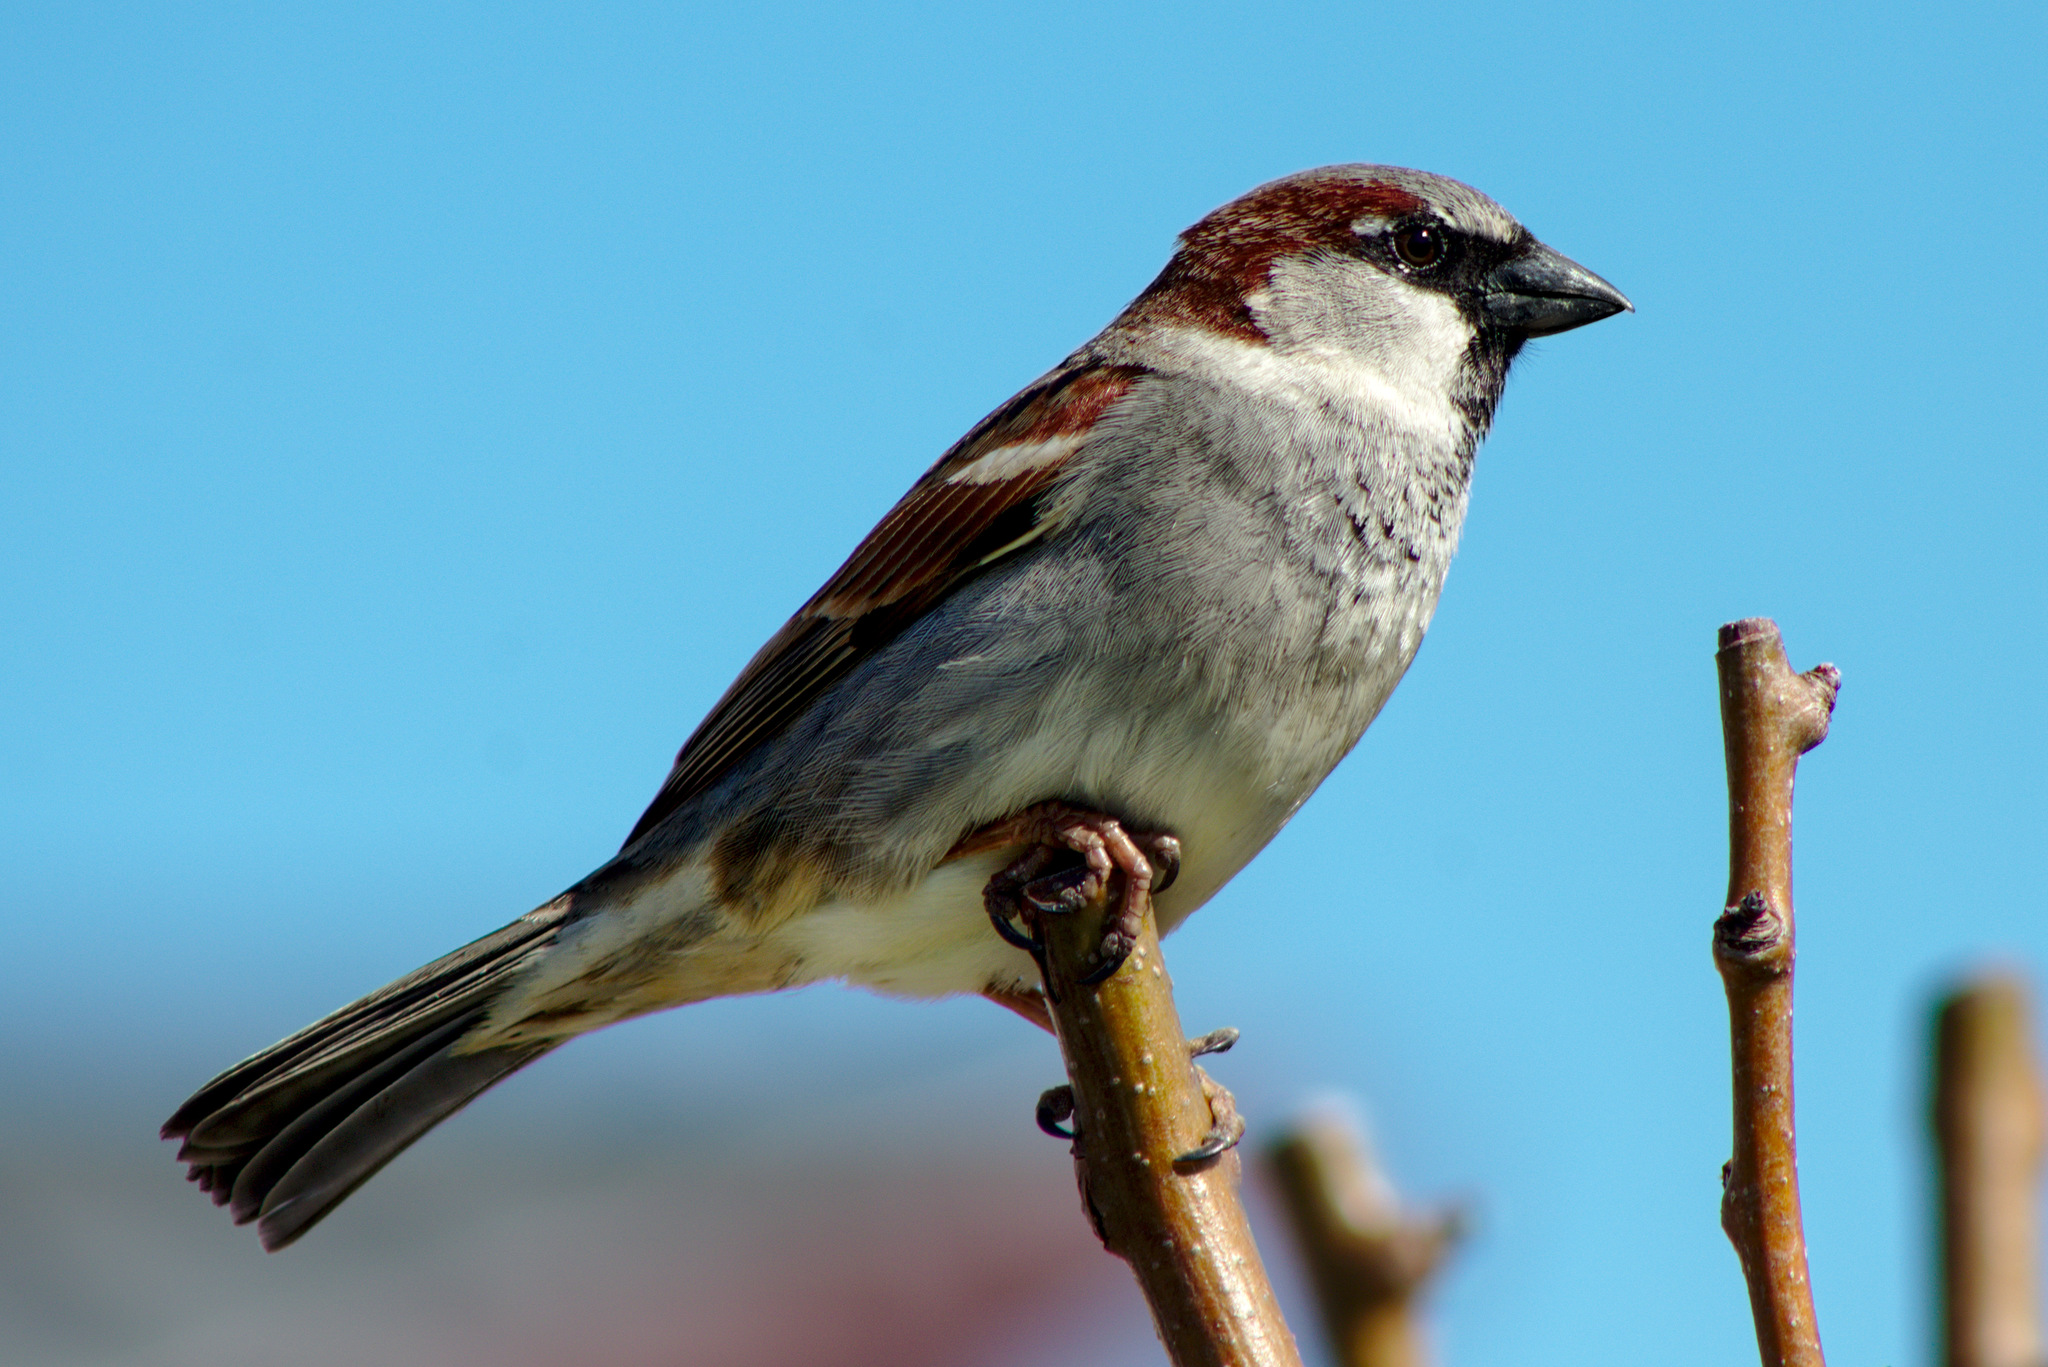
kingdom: Animalia
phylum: Chordata
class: Aves
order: Passeriformes
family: Passeridae
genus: Passer
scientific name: Passer domesticus
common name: House sparrow
